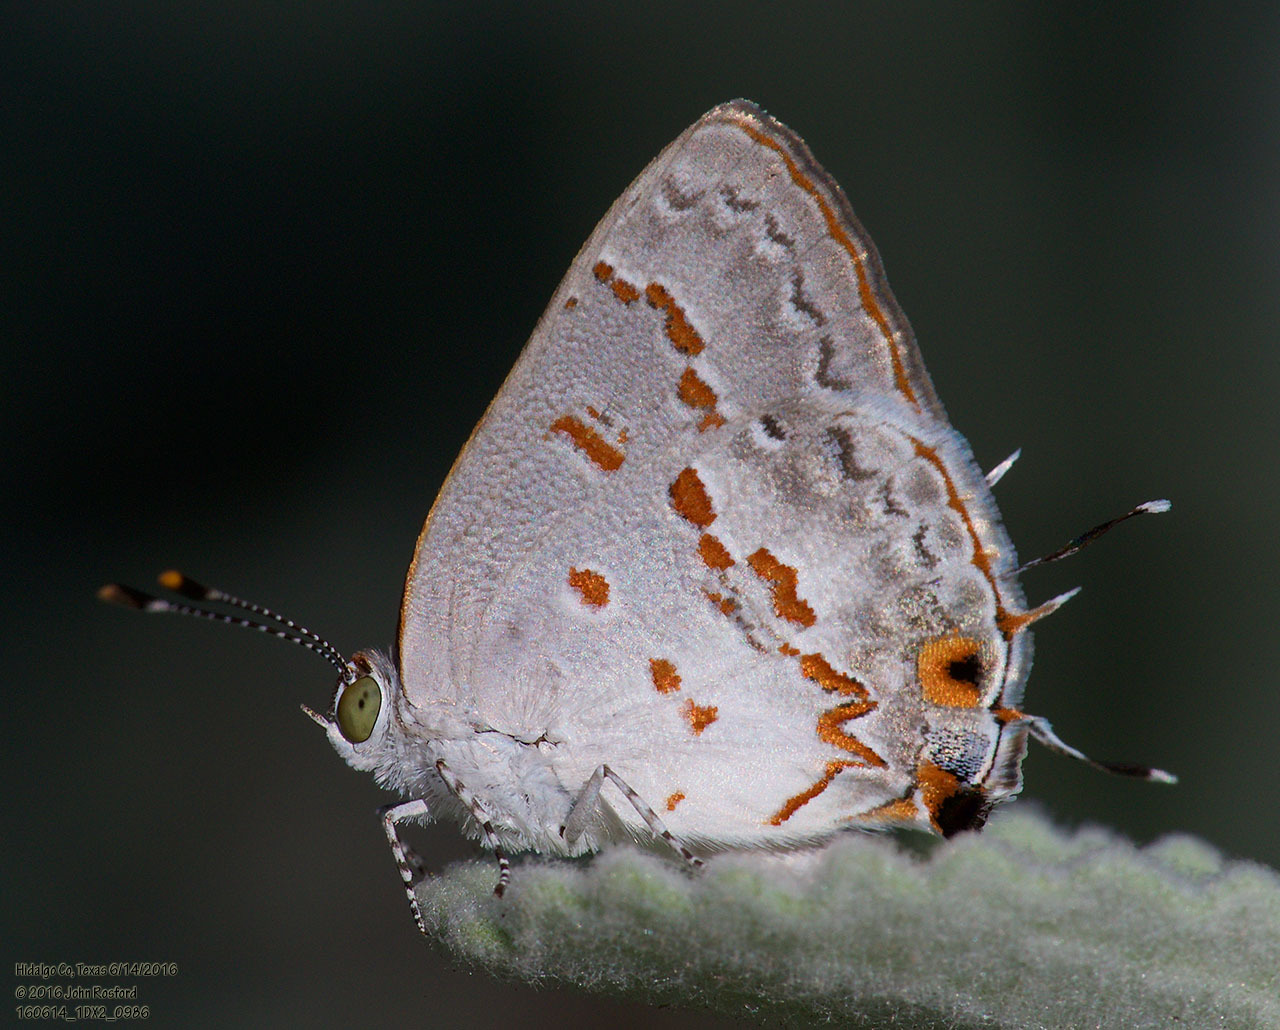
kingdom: Animalia
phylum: Arthropoda
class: Insecta
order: Lepidoptera
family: Lycaenidae
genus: Ministrymon
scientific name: Ministrymon clytie
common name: Clytie ministreak
